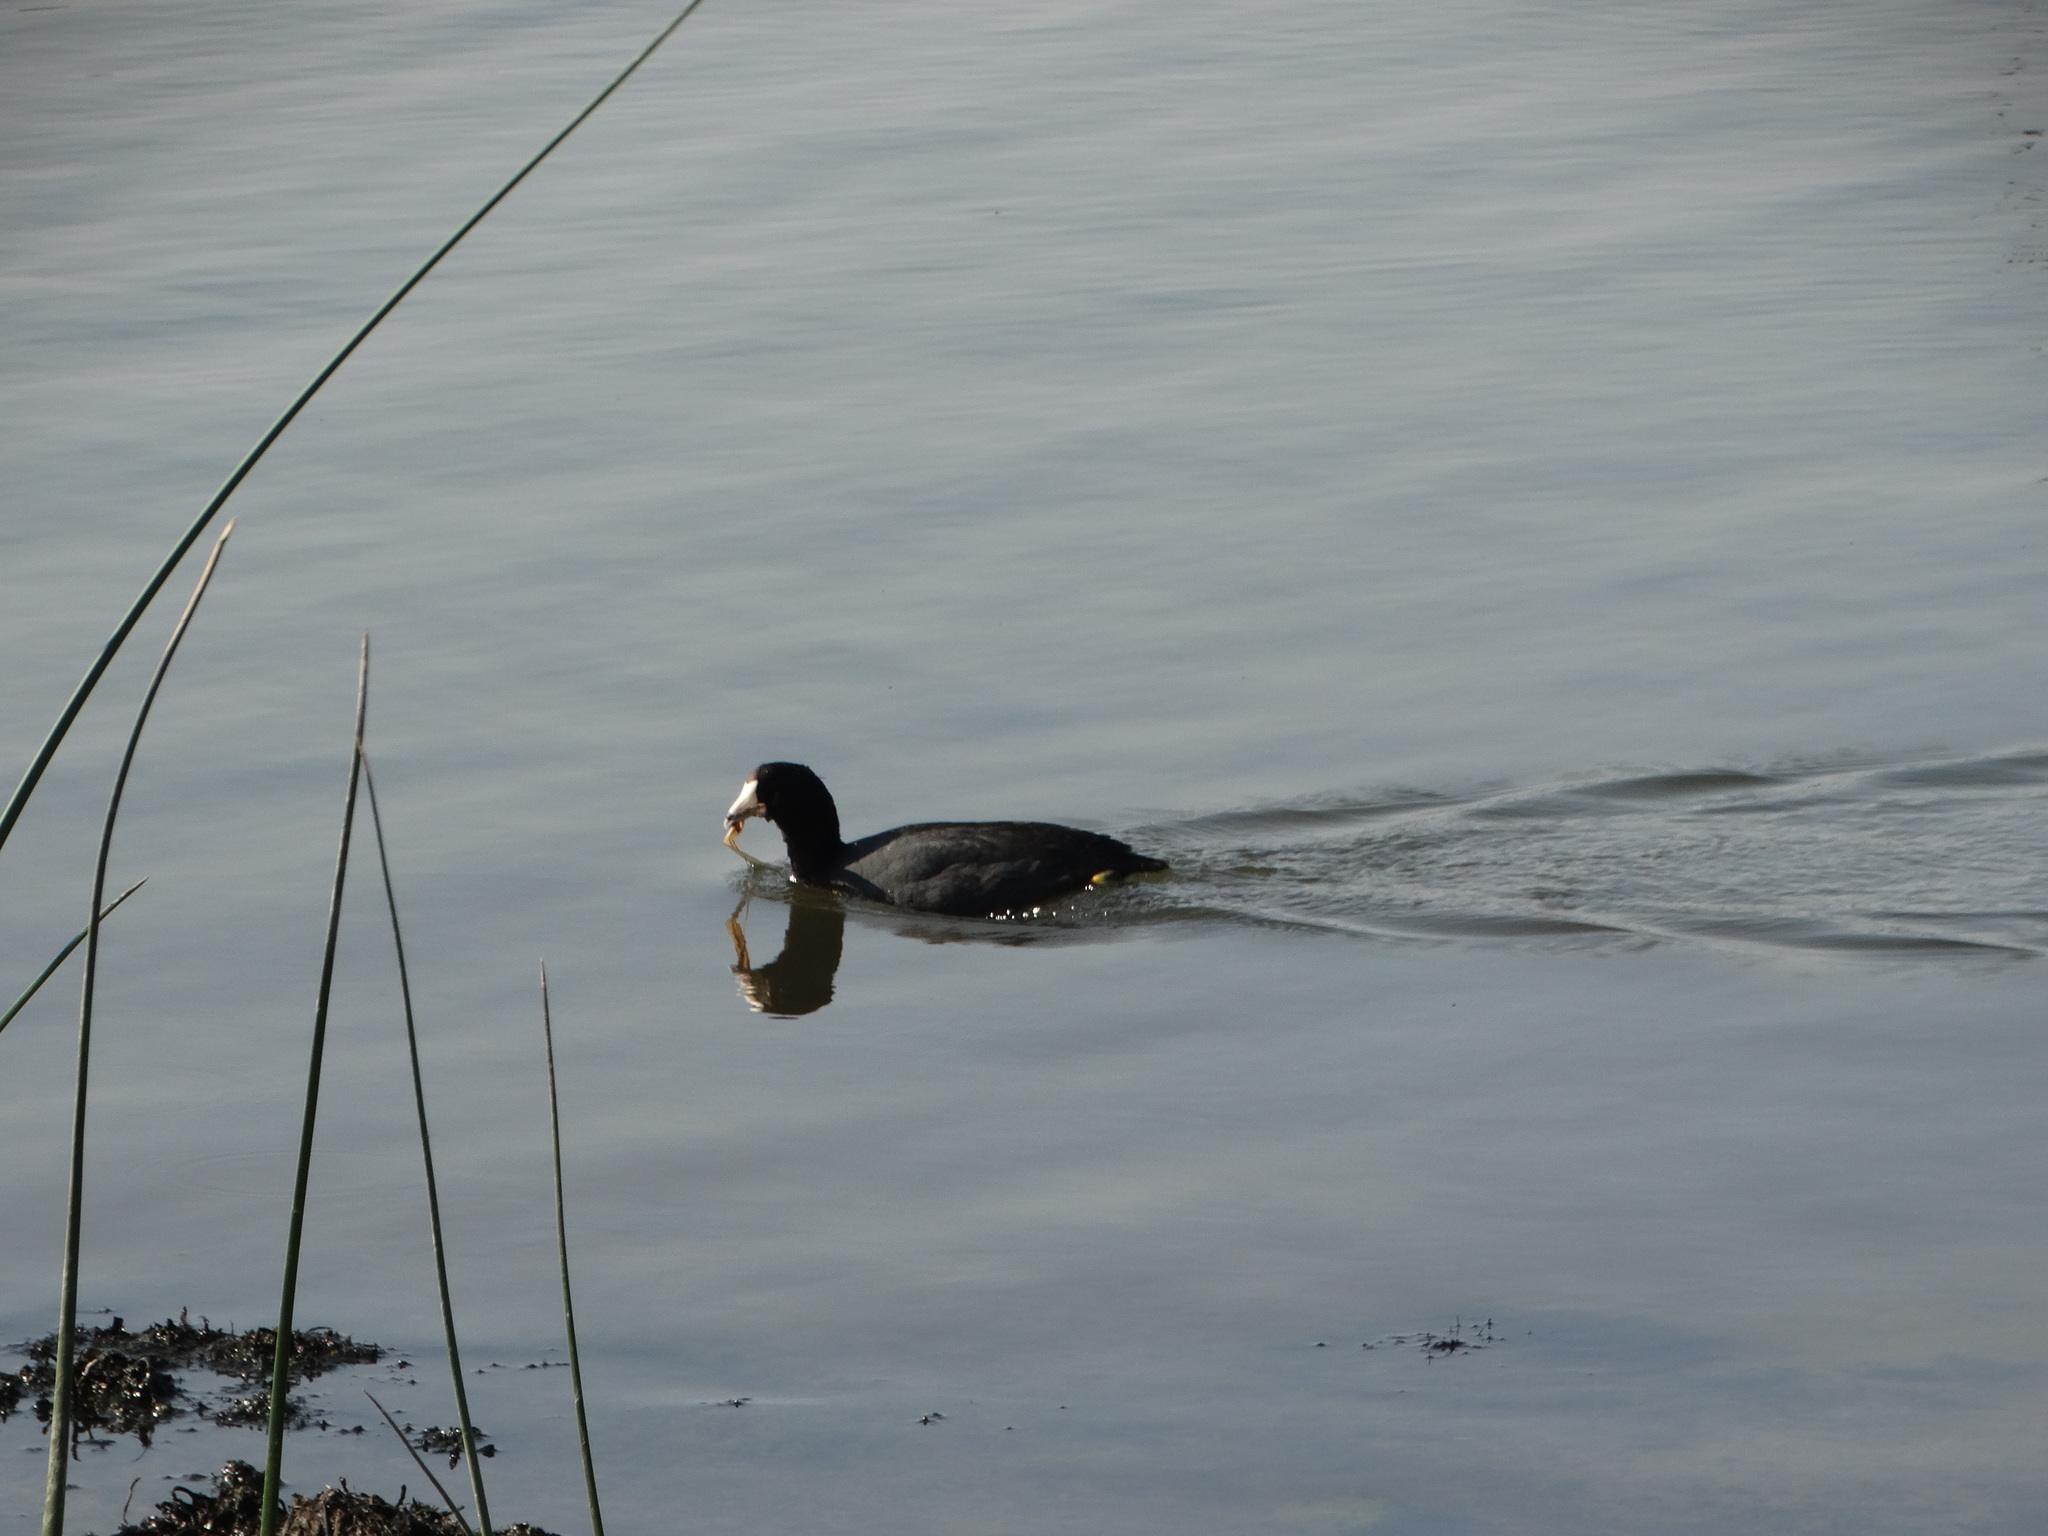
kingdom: Animalia
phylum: Chordata
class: Aves
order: Gruiformes
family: Rallidae
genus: Fulica
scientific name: Fulica americana
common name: American coot
